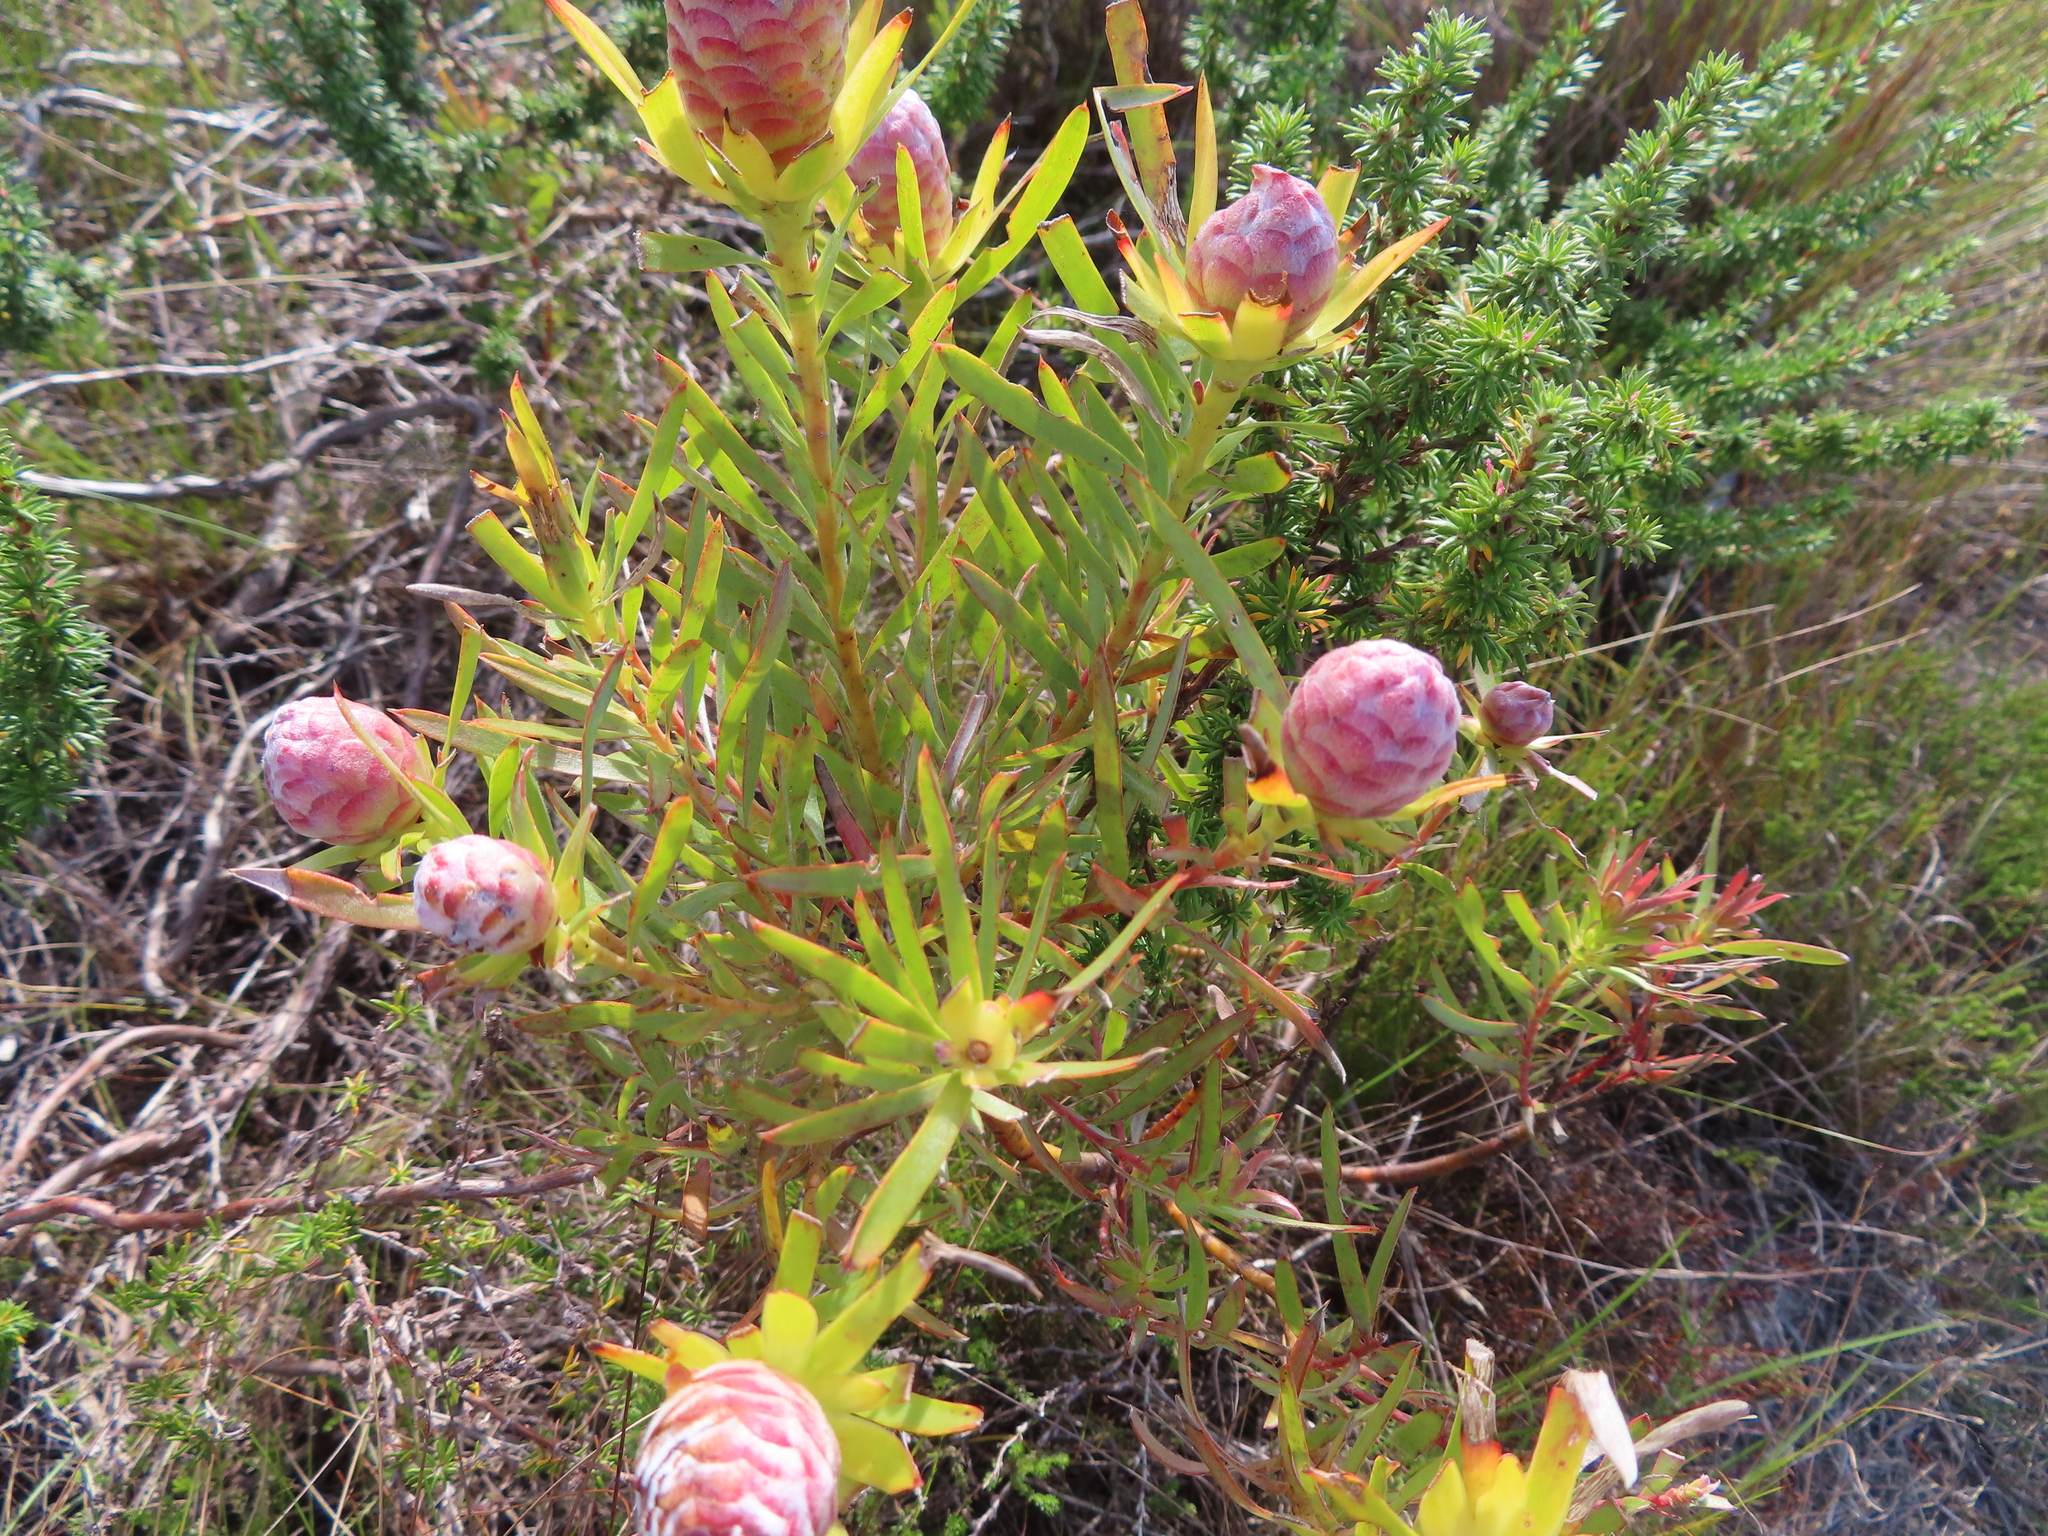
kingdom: Plantae
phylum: Tracheophyta
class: Magnoliopsida
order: Proteales
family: Proteaceae
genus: Leucadendron
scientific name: Leucadendron xanthoconus
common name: Sickle-leaf conebush
